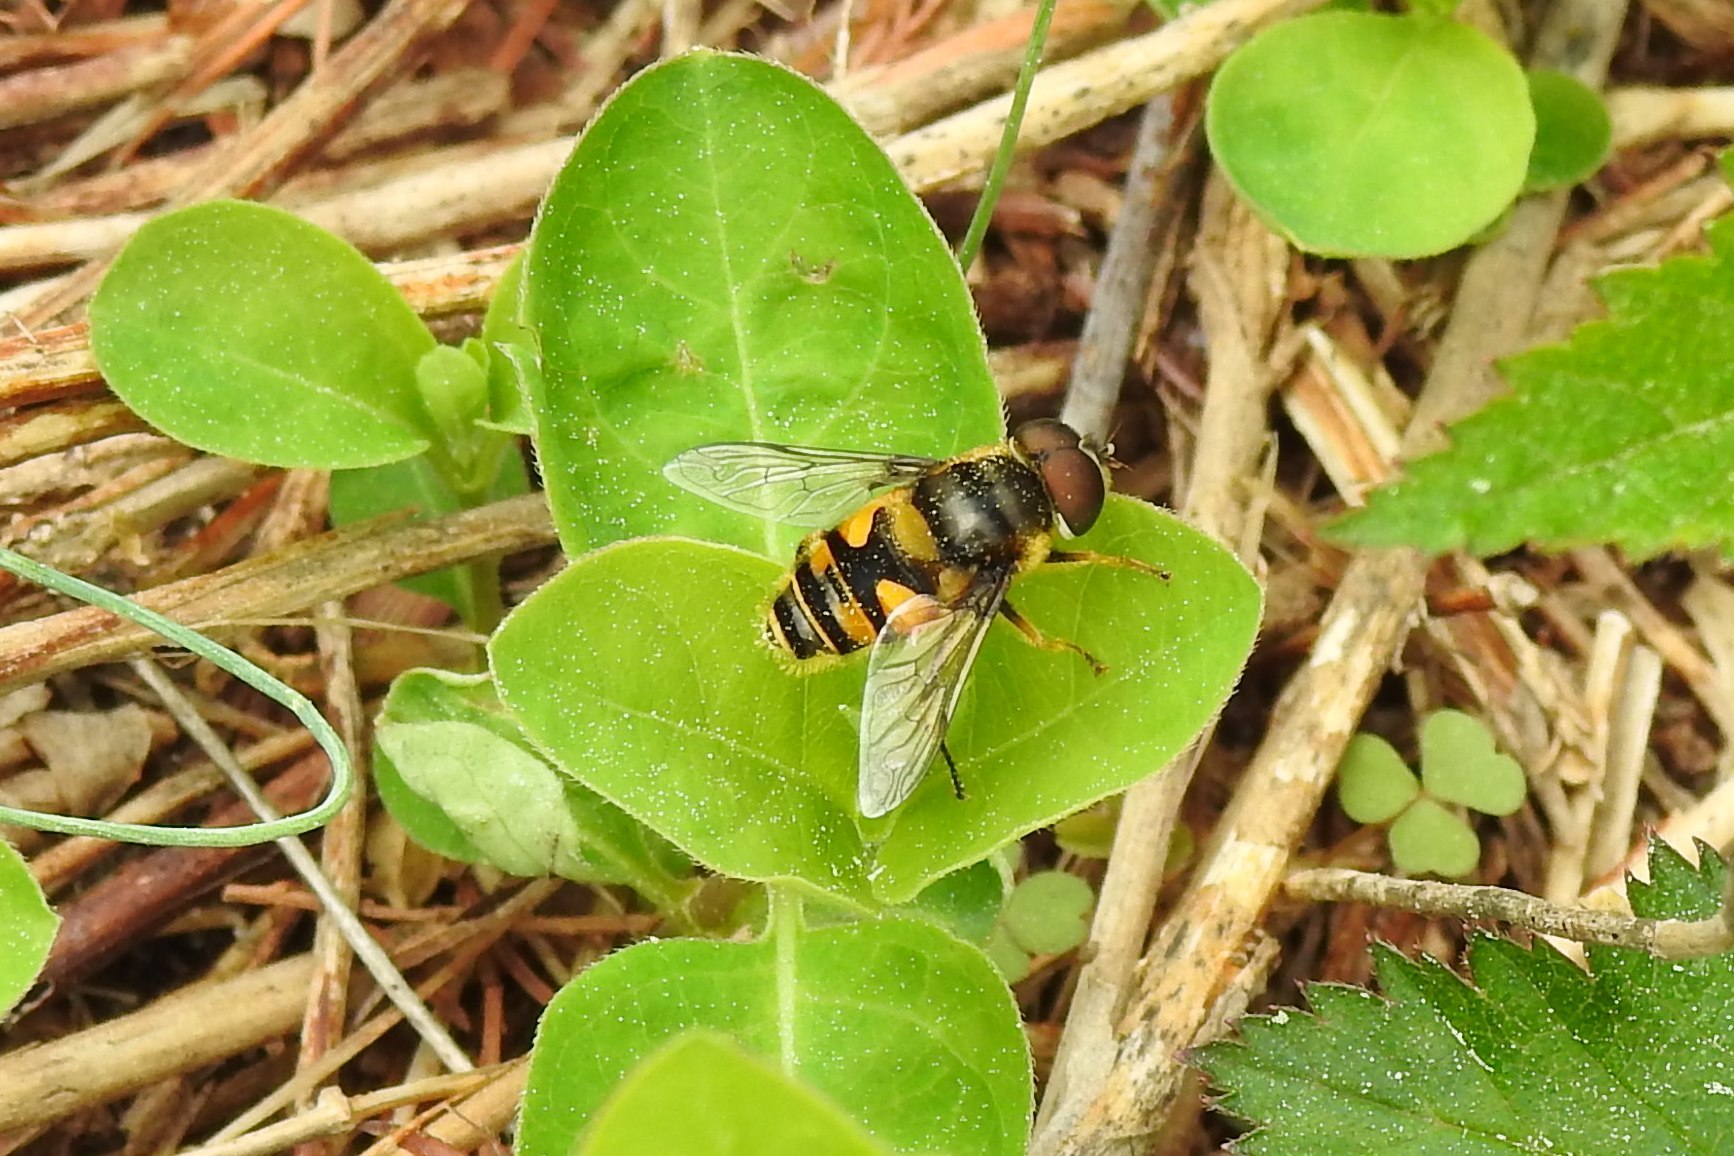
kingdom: Animalia
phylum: Arthropoda
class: Insecta
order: Diptera
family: Syrphidae
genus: Eristalis
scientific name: Eristalis transversa
